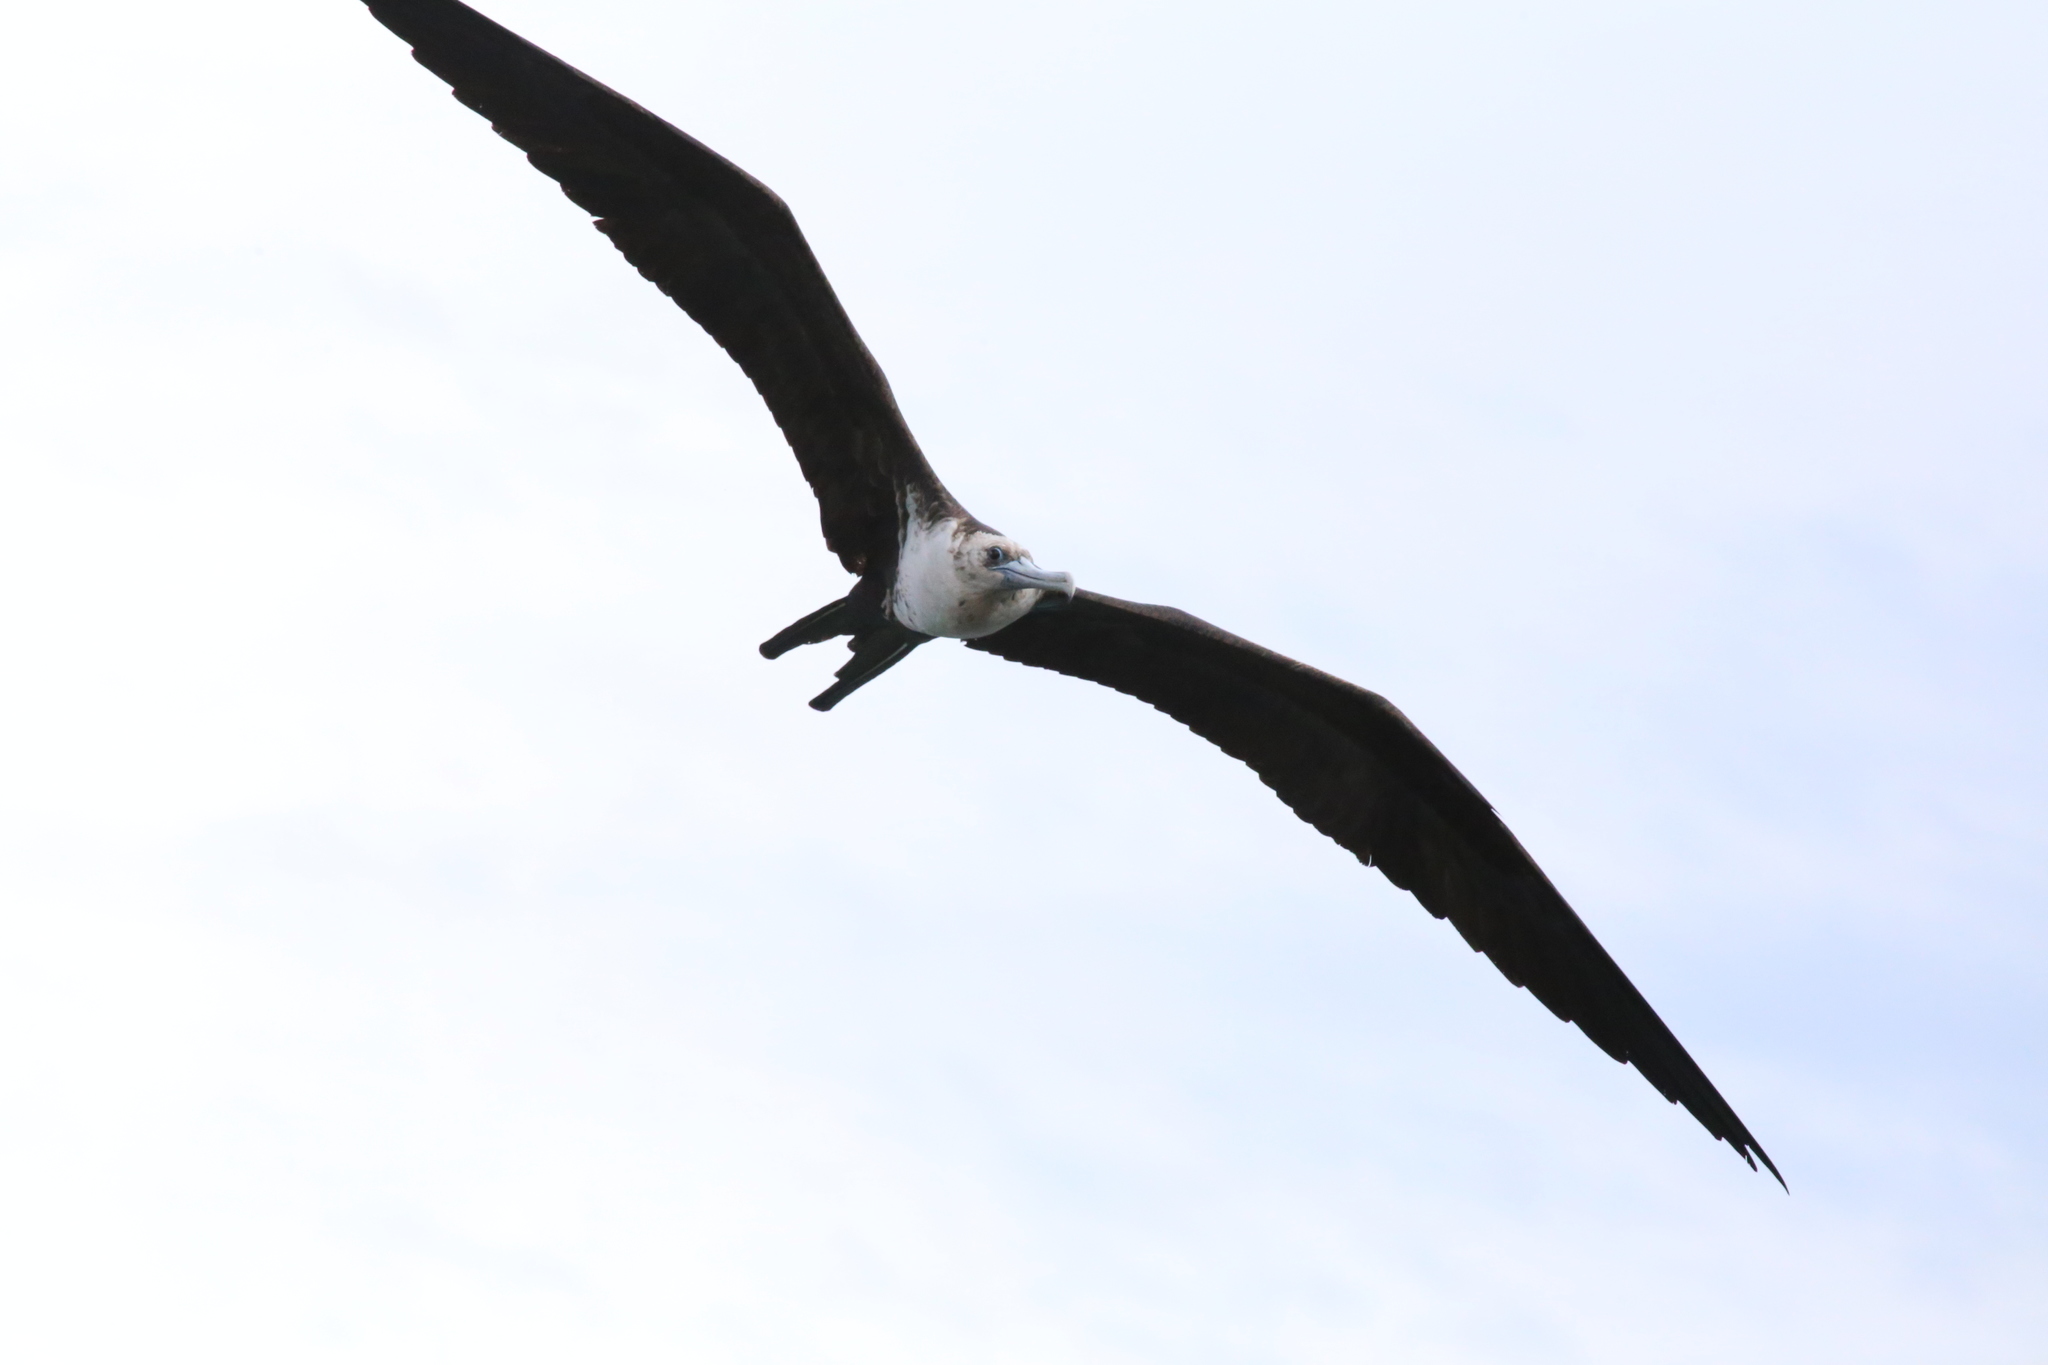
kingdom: Animalia
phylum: Chordata
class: Aves
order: Suliformes
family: Fregatidae
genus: Fregata
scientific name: Fregata magnificens
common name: Magnificent frigatebird
